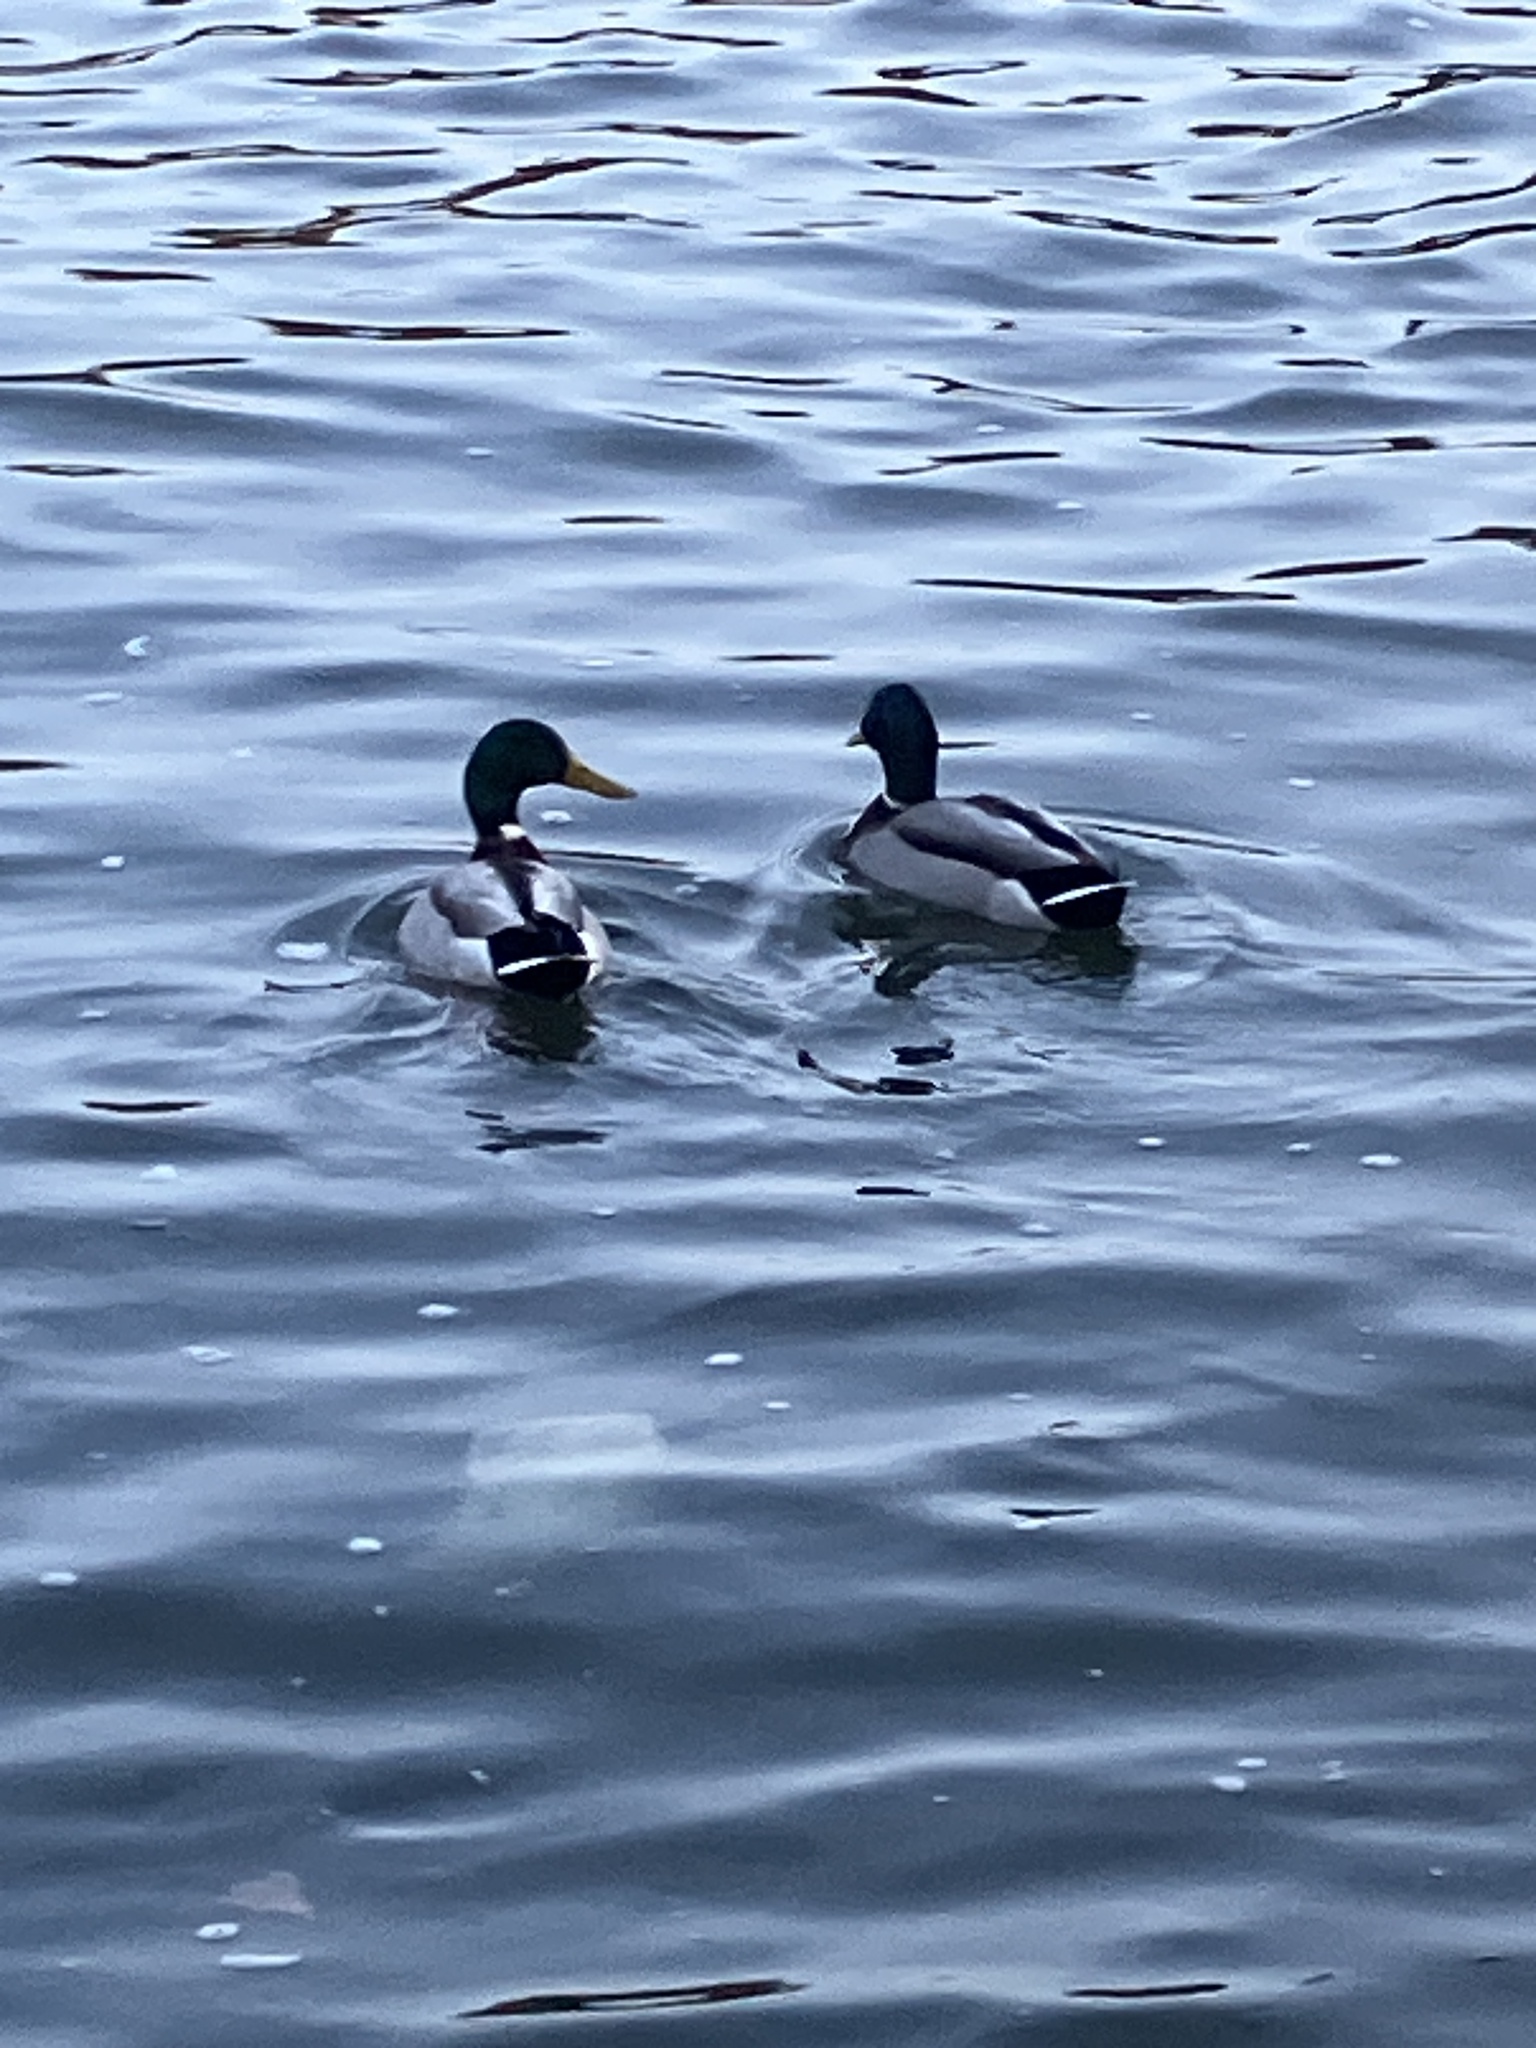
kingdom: Animalia
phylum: Chordata
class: Aves
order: Anseriformes
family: Anatidae
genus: Anas
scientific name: Anas platyrhynchos
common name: Mallard
